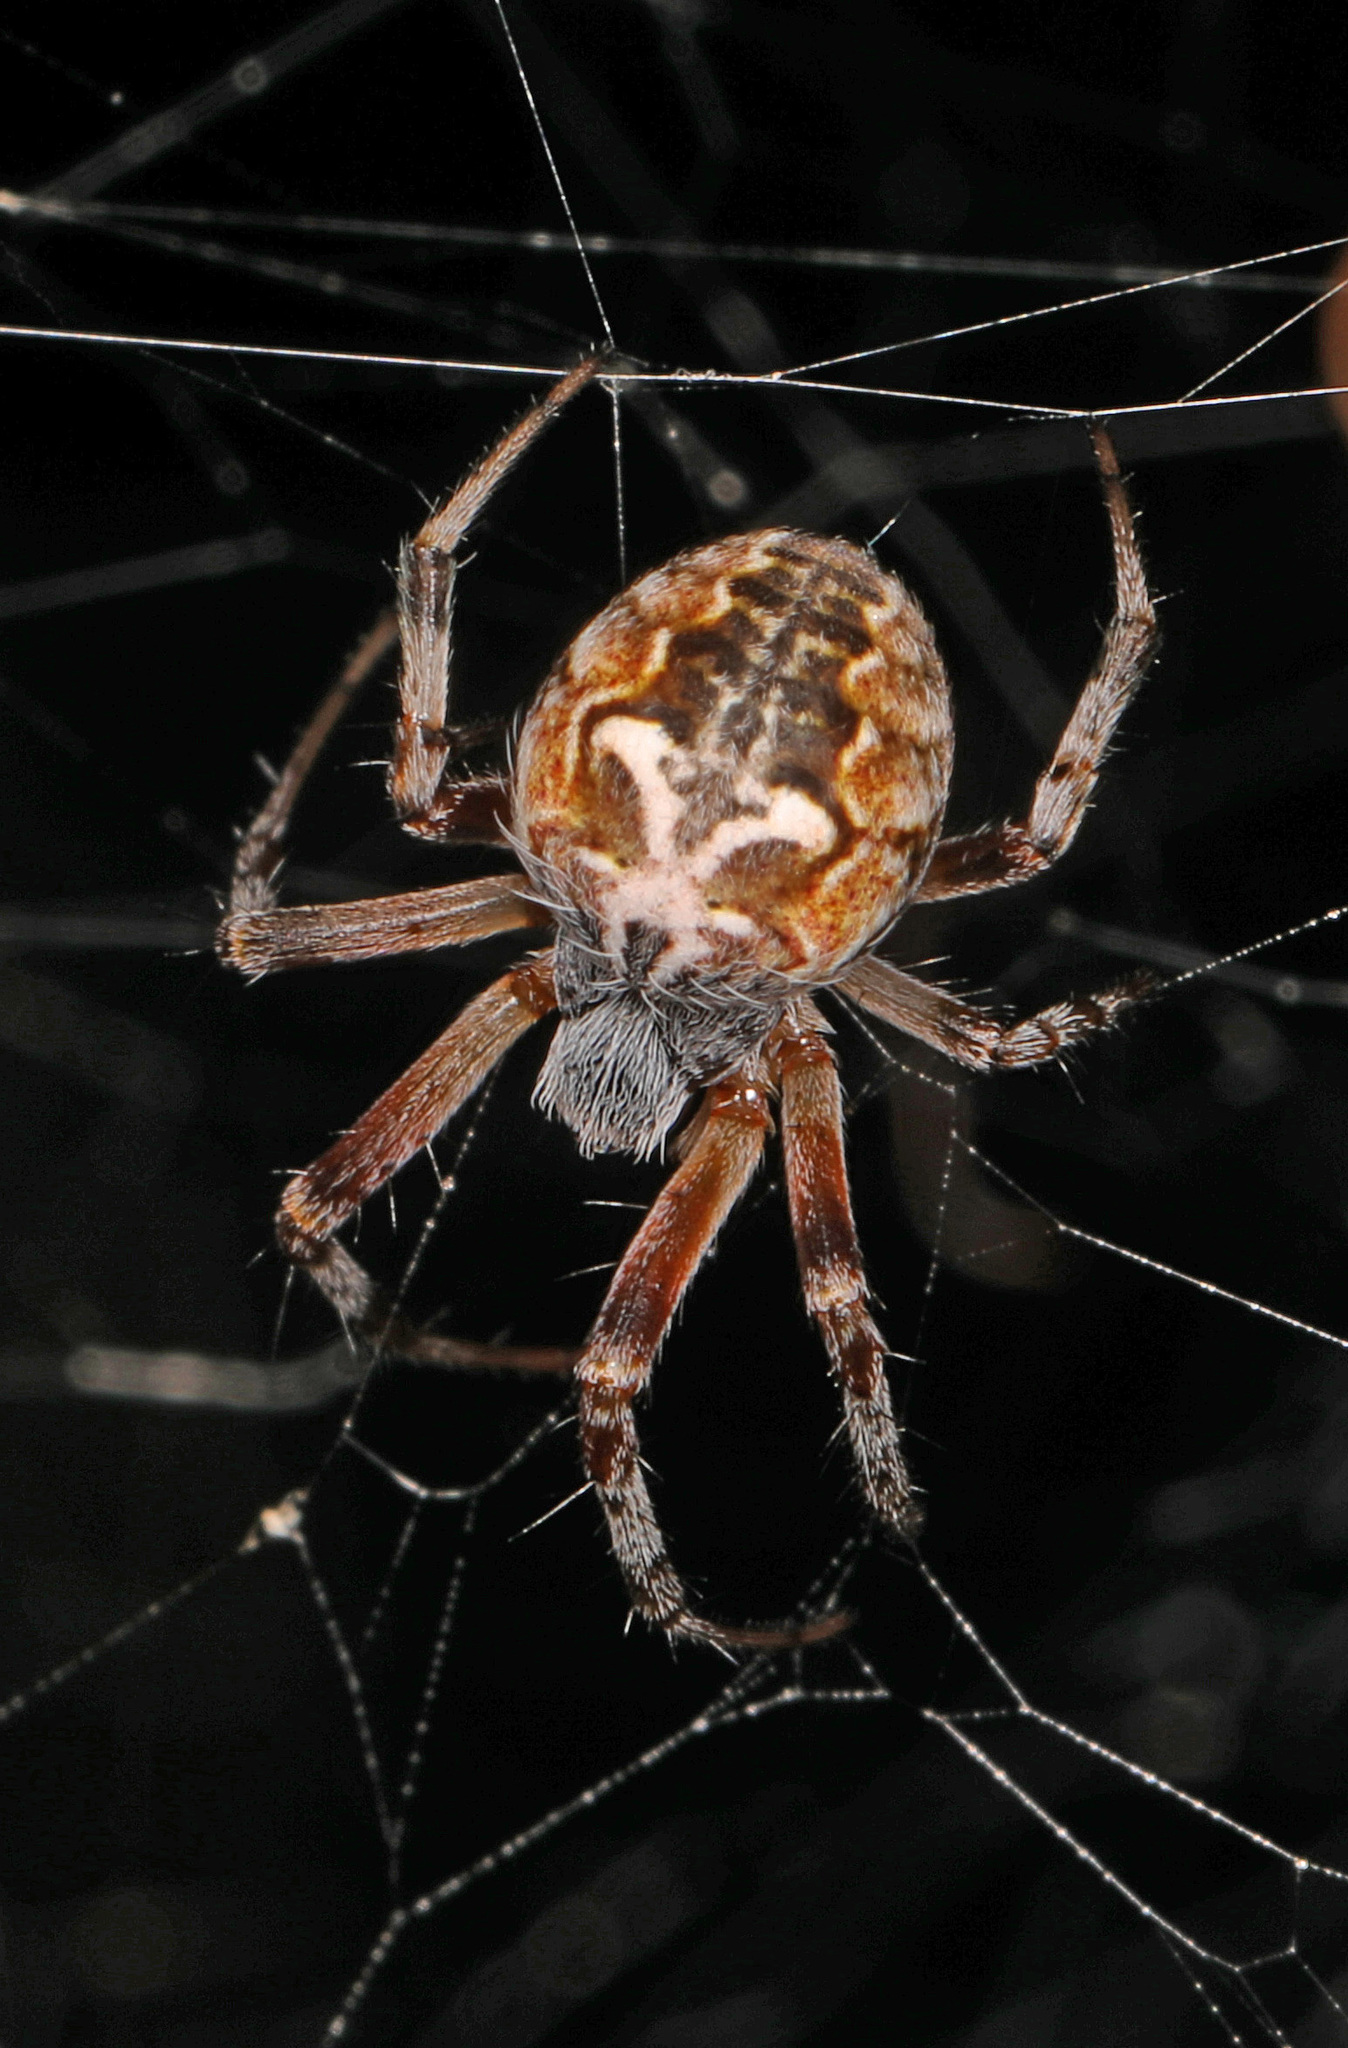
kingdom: Animalia
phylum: Arthropoda
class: Arachnida
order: Araneae
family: Araneidae
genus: Metepeira
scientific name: Metepeira labyrinthea
